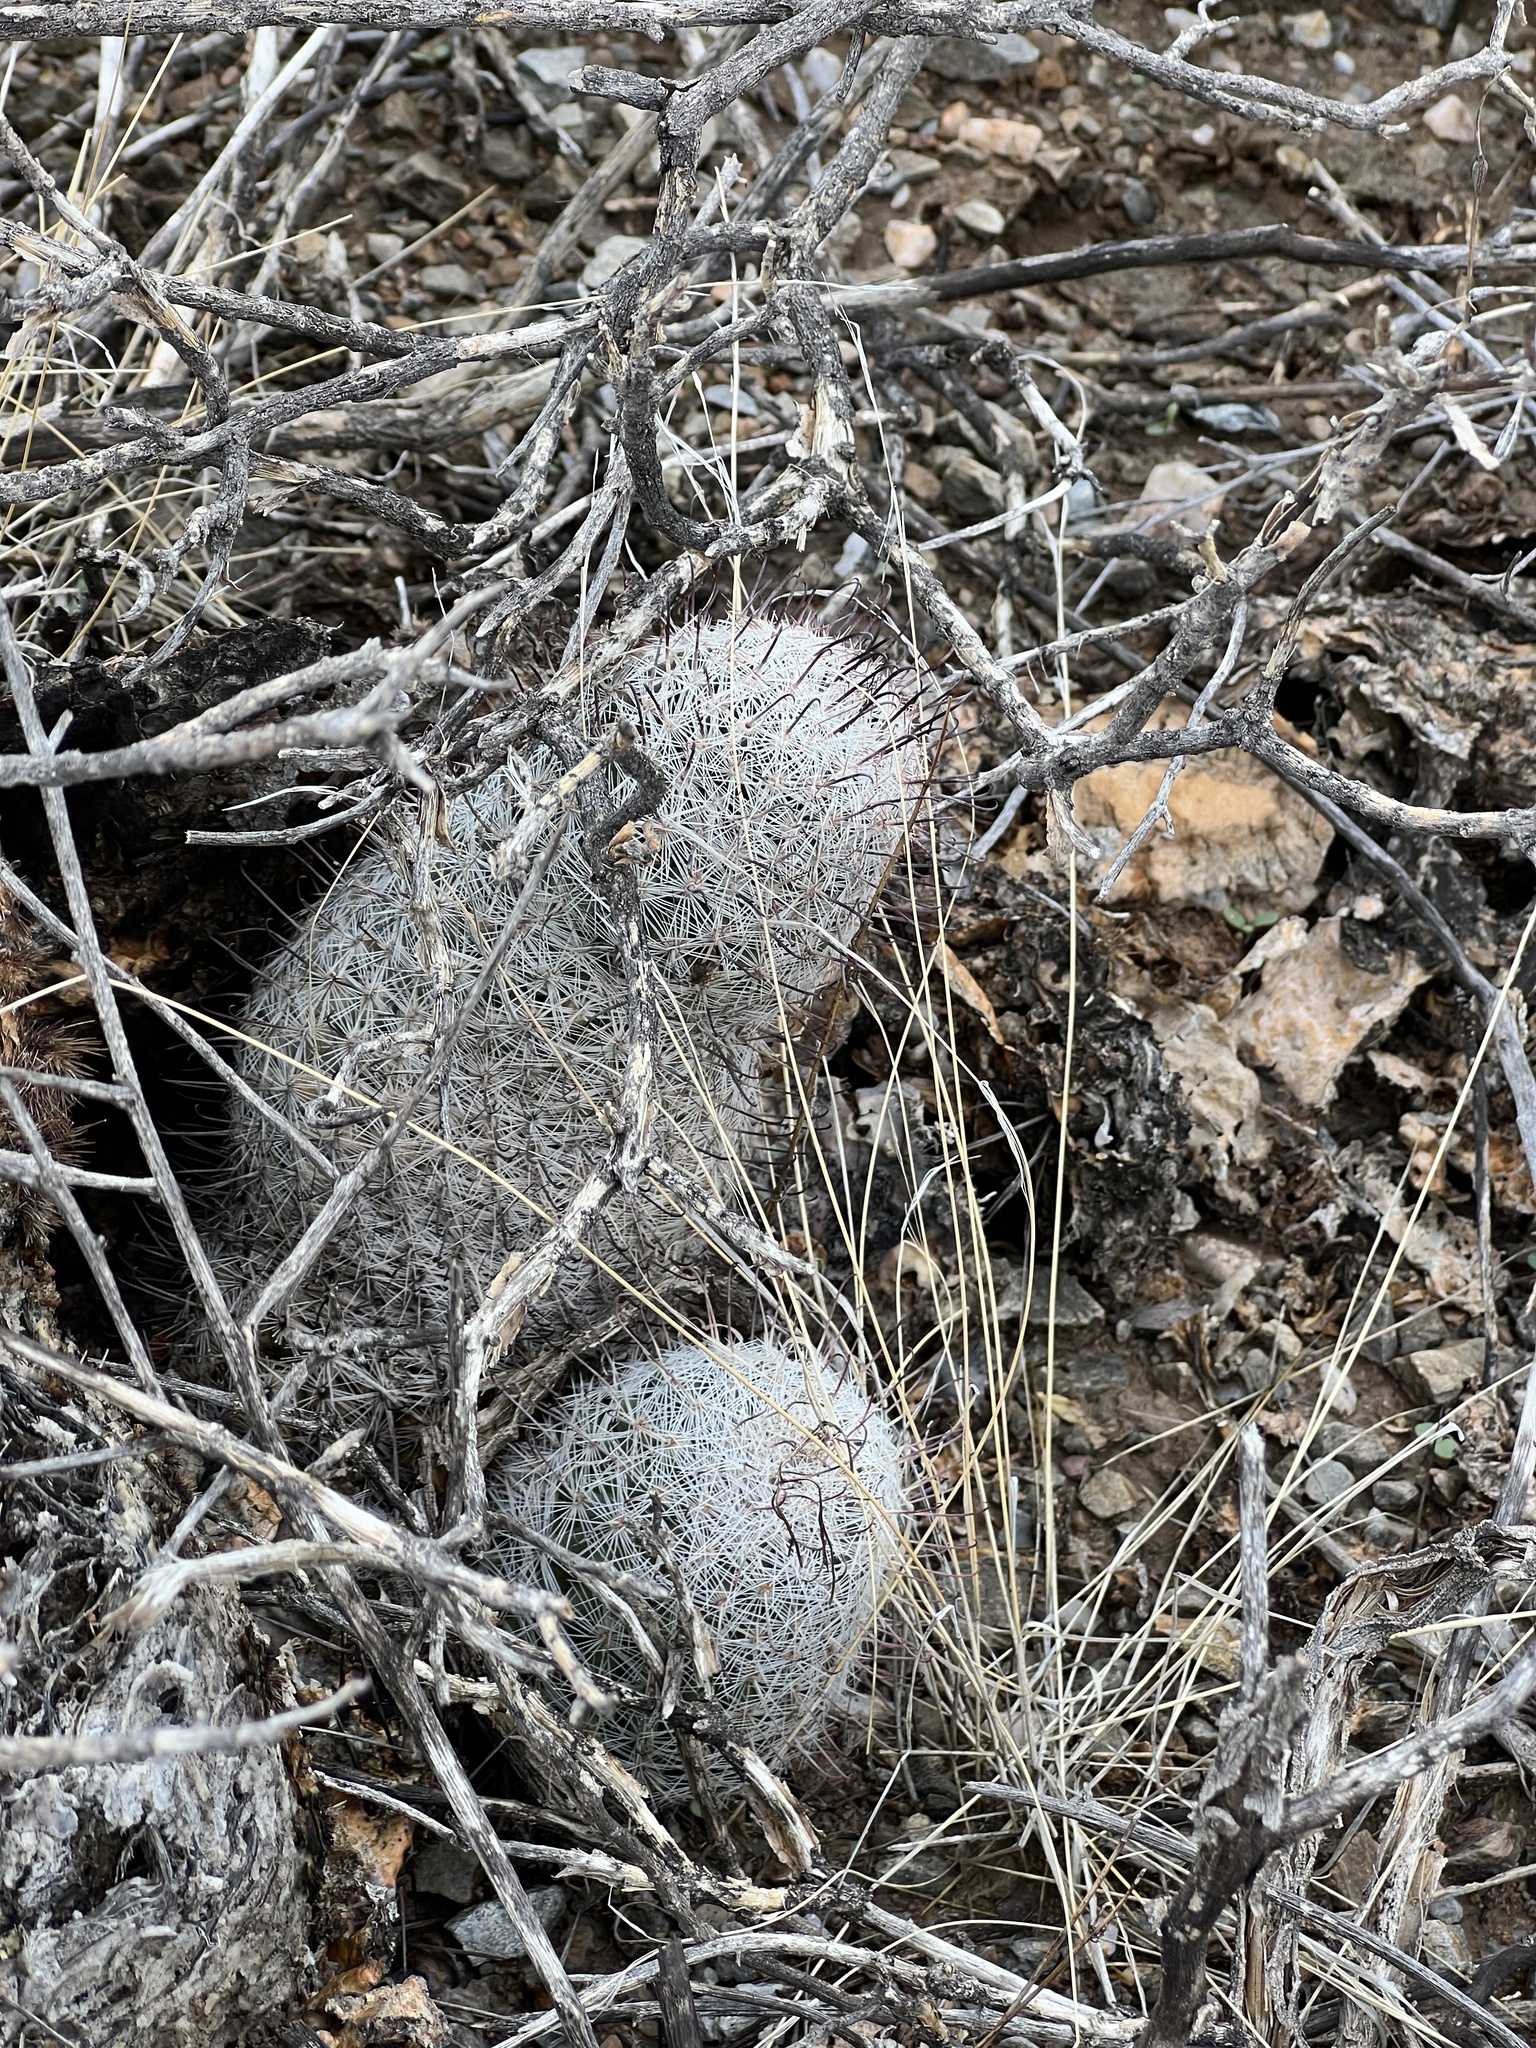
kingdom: Plantae
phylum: Tracheophyta
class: Magnoliopsida
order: Caryophyllales
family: Cactaceae
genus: Cochemiea
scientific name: Cochemiea grahamii
